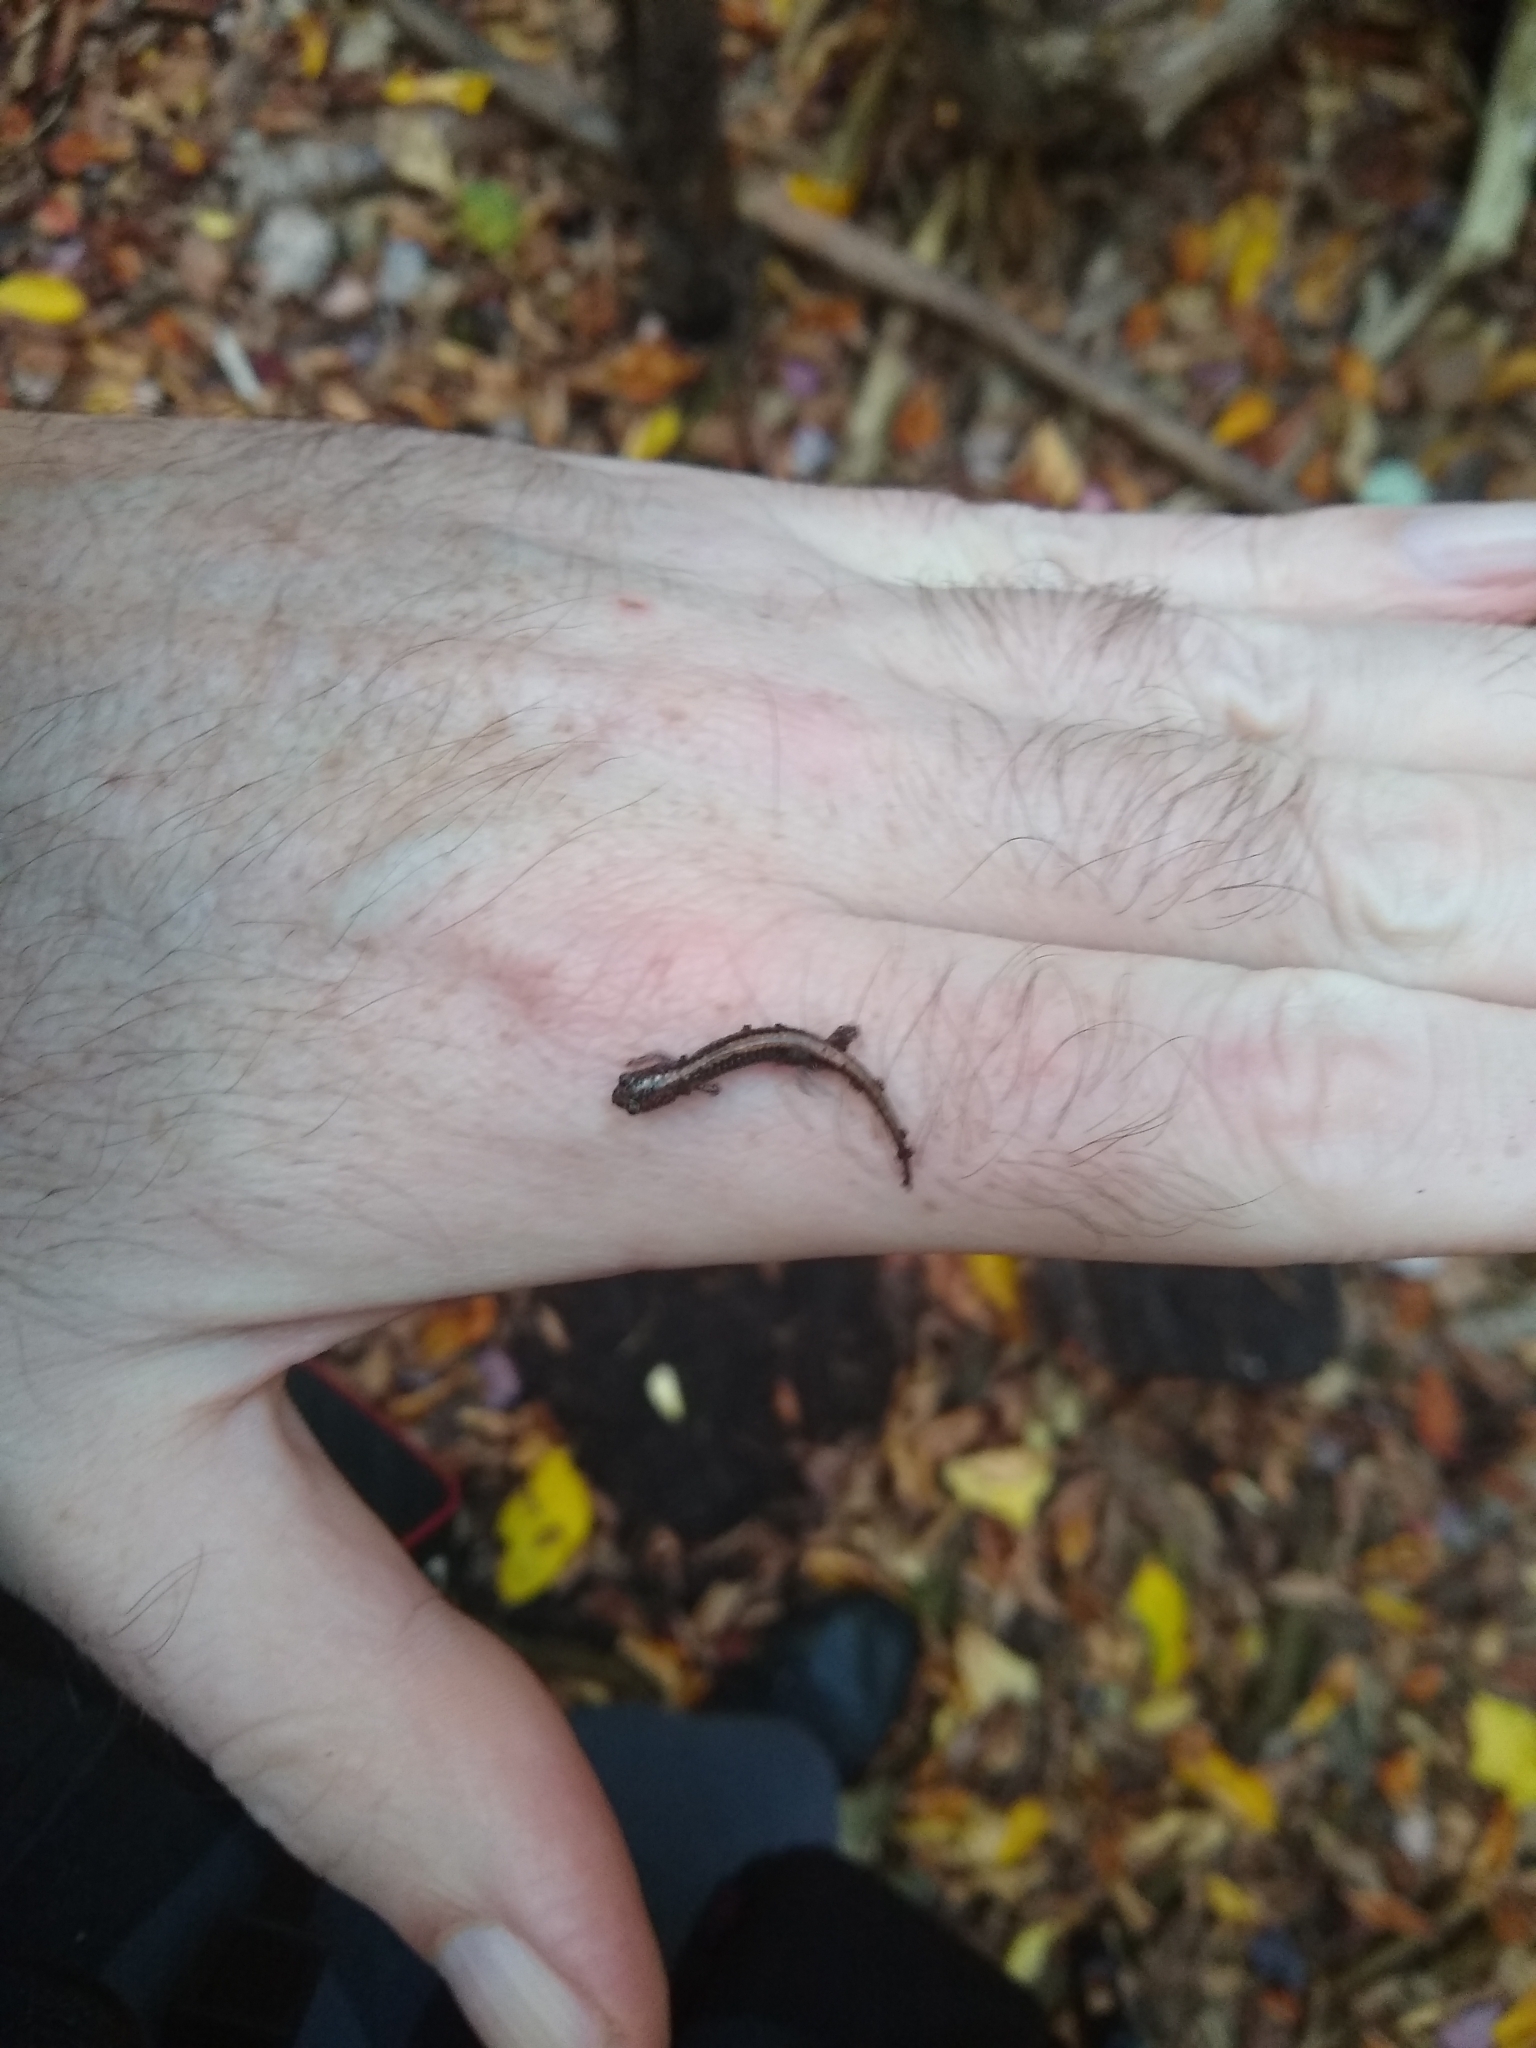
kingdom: Animalia
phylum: Chordata
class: Amphibia
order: Caudata
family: Plethodontidae
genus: Plethodon
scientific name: Plethodon cinereus
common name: Redback salamander
